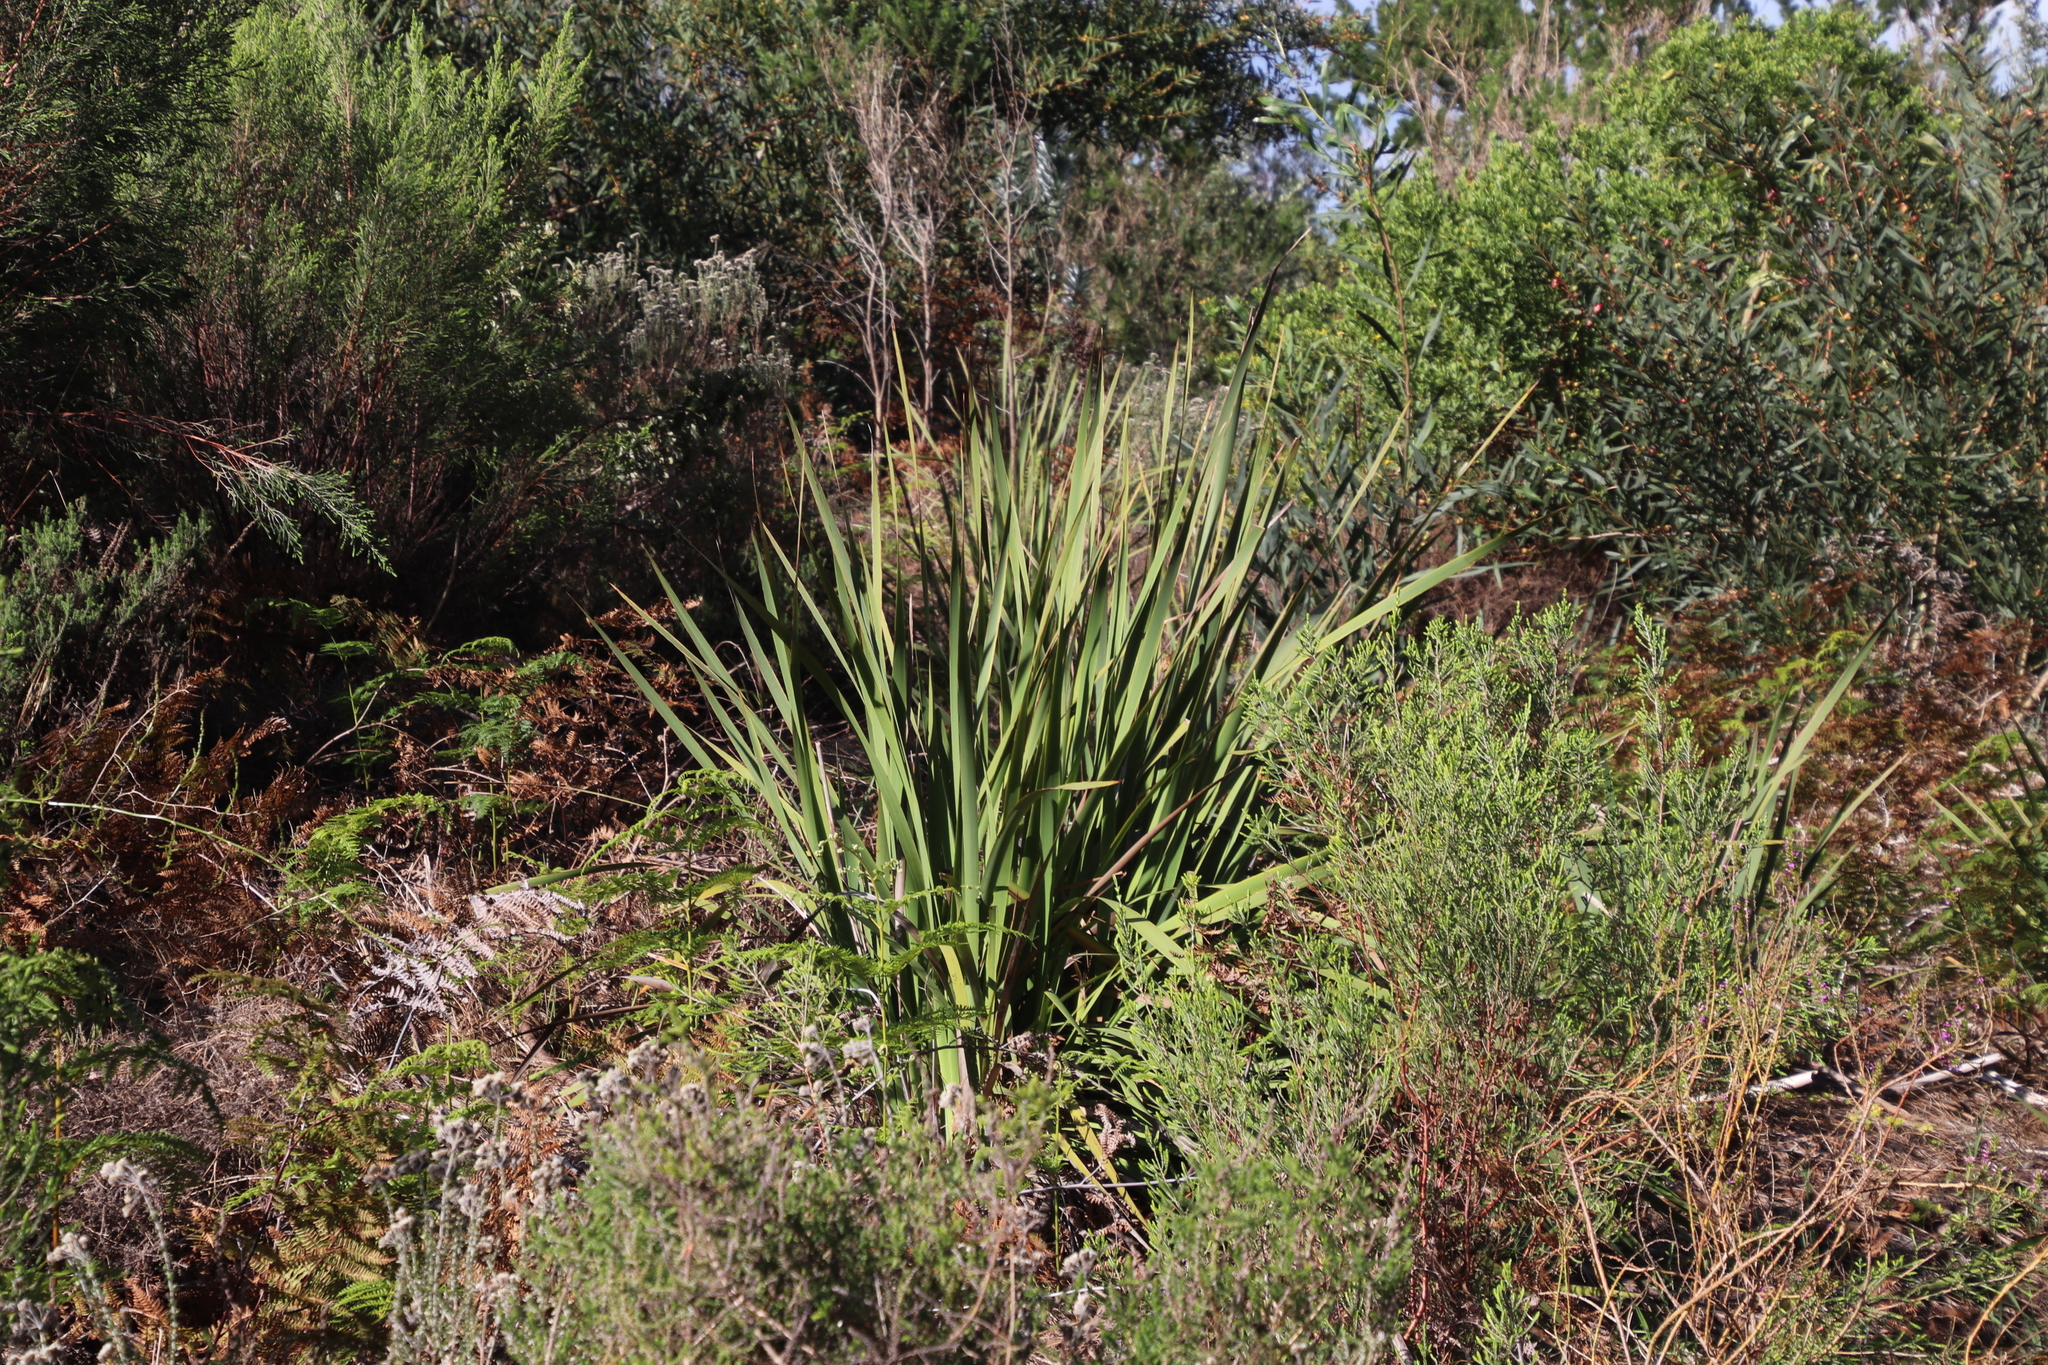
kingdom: Plantae
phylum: Tracheophyta
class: Liliopsida
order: Asparagales
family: Iridaceae
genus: Aristea
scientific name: Aristea capitata
